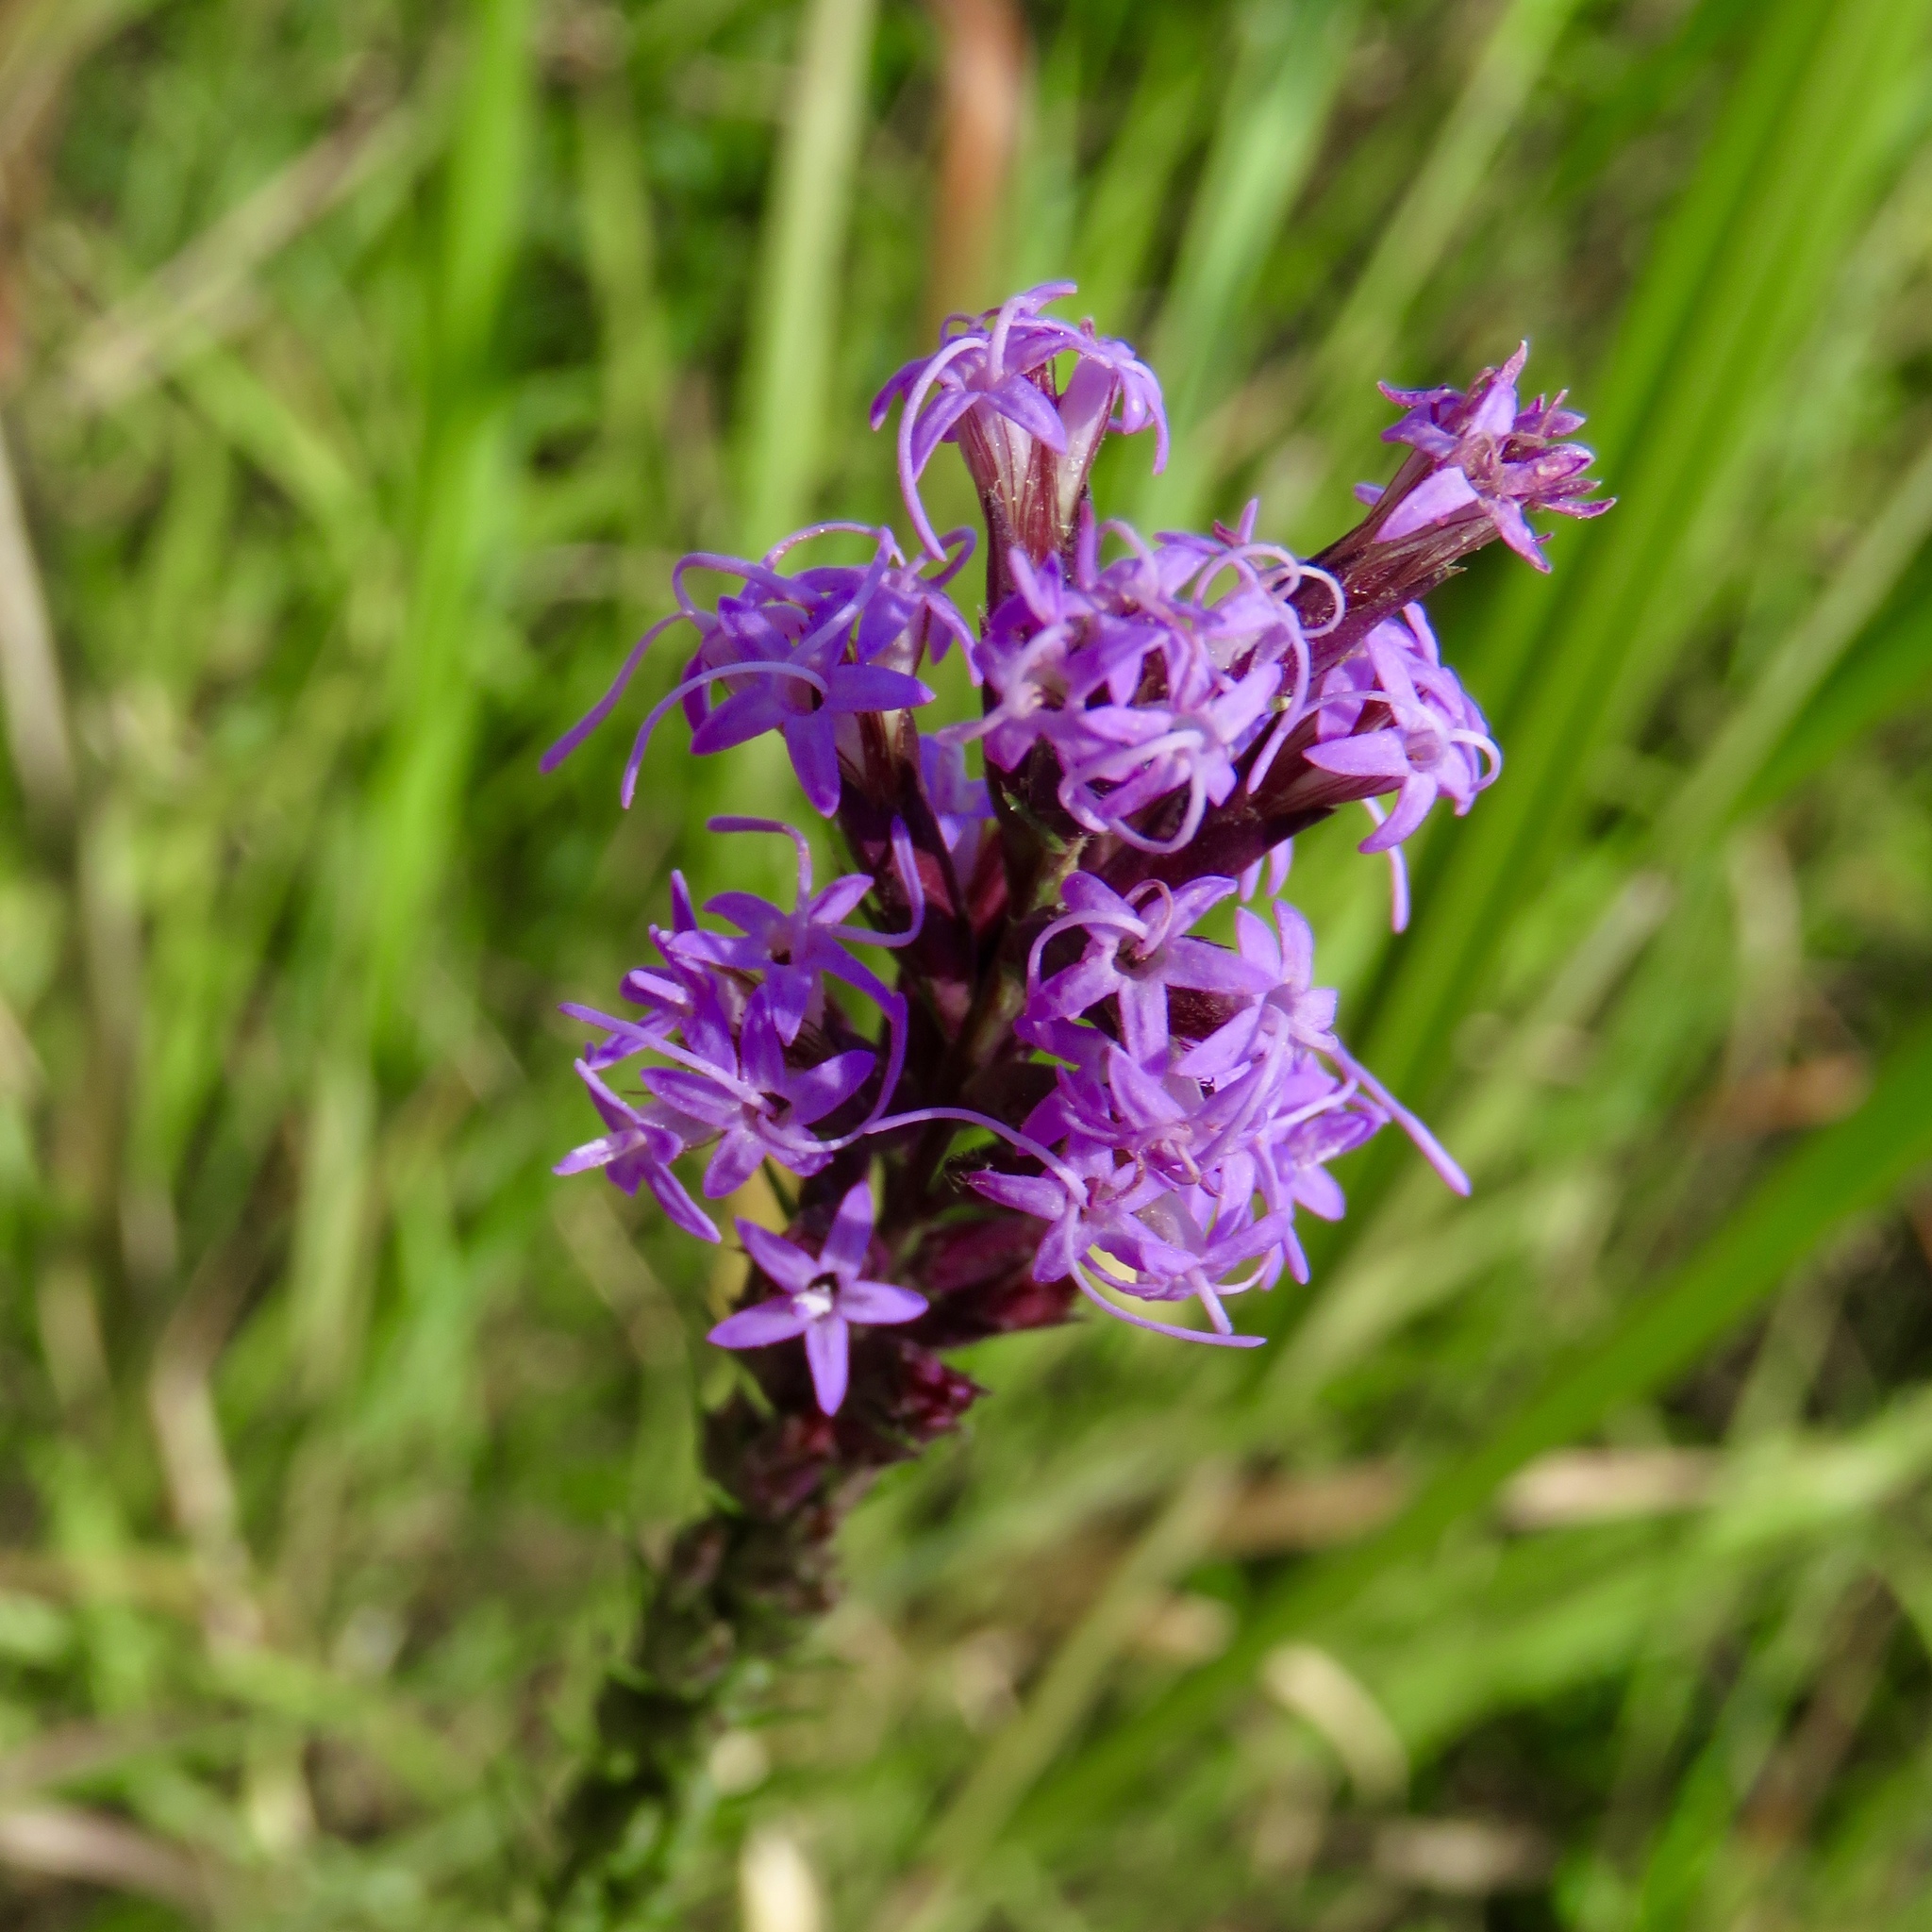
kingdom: Plantae
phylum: Tracheophyta
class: Magnoliopsida
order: Asterales
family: Asteraceae
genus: Liatris
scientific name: Liatris acidota
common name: Gulf coast gayfeather
